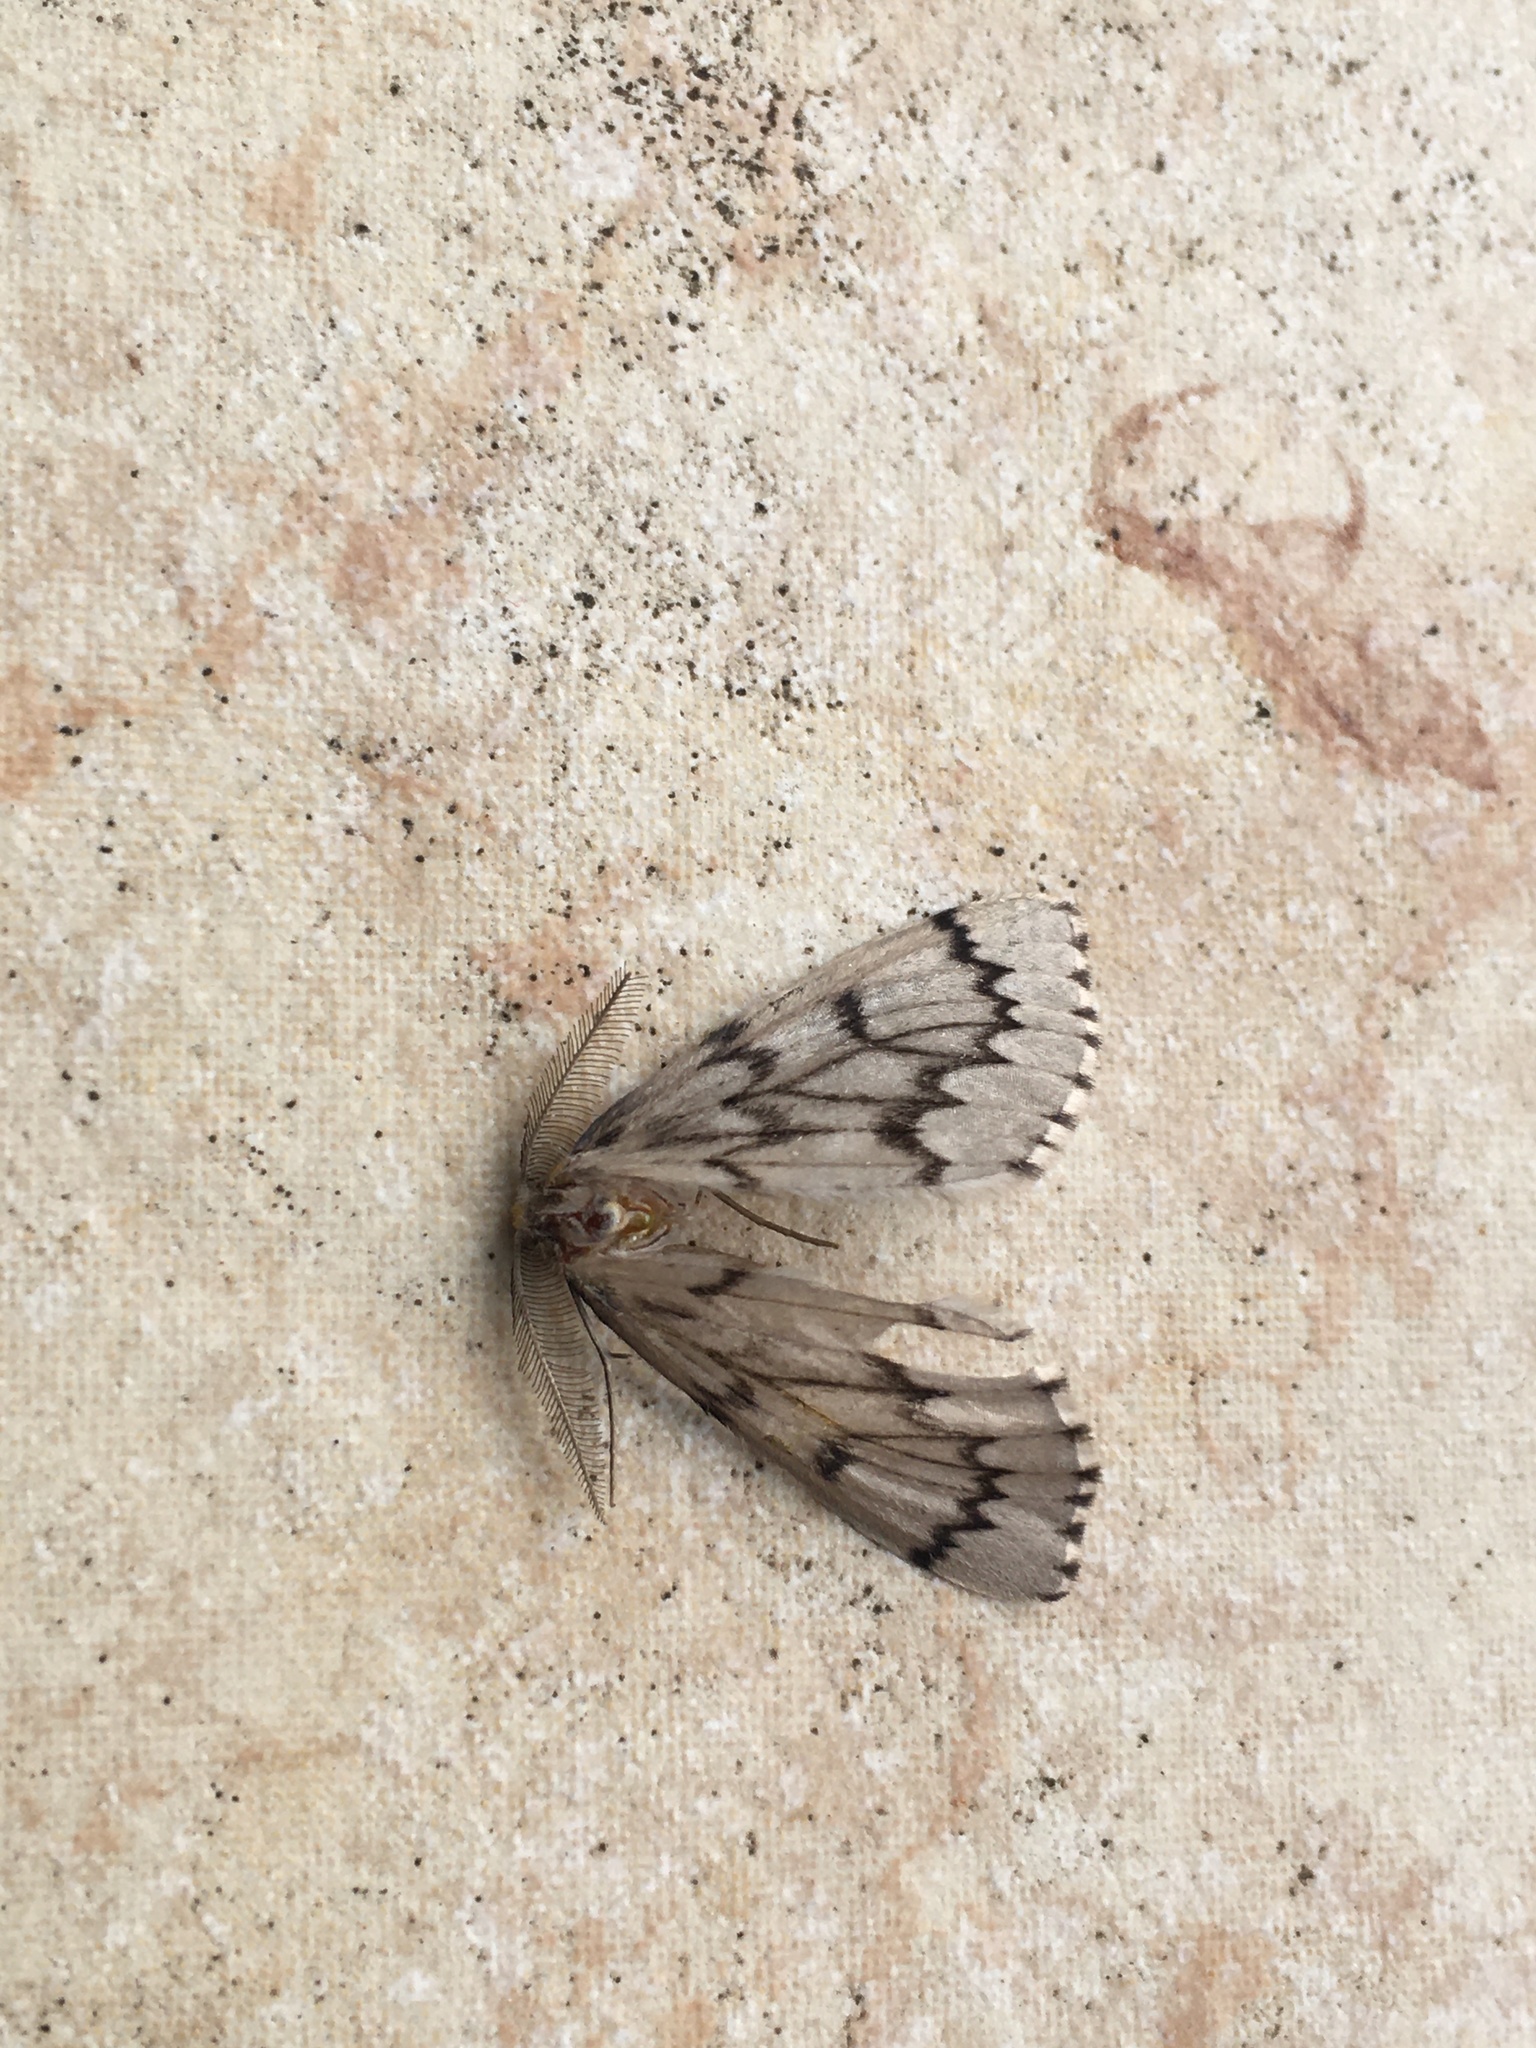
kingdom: Animalia
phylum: Arthropoda
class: Insecta
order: Lepidoptera
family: Geometridae
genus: Nepytia
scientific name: Nepytia phantasmaria
